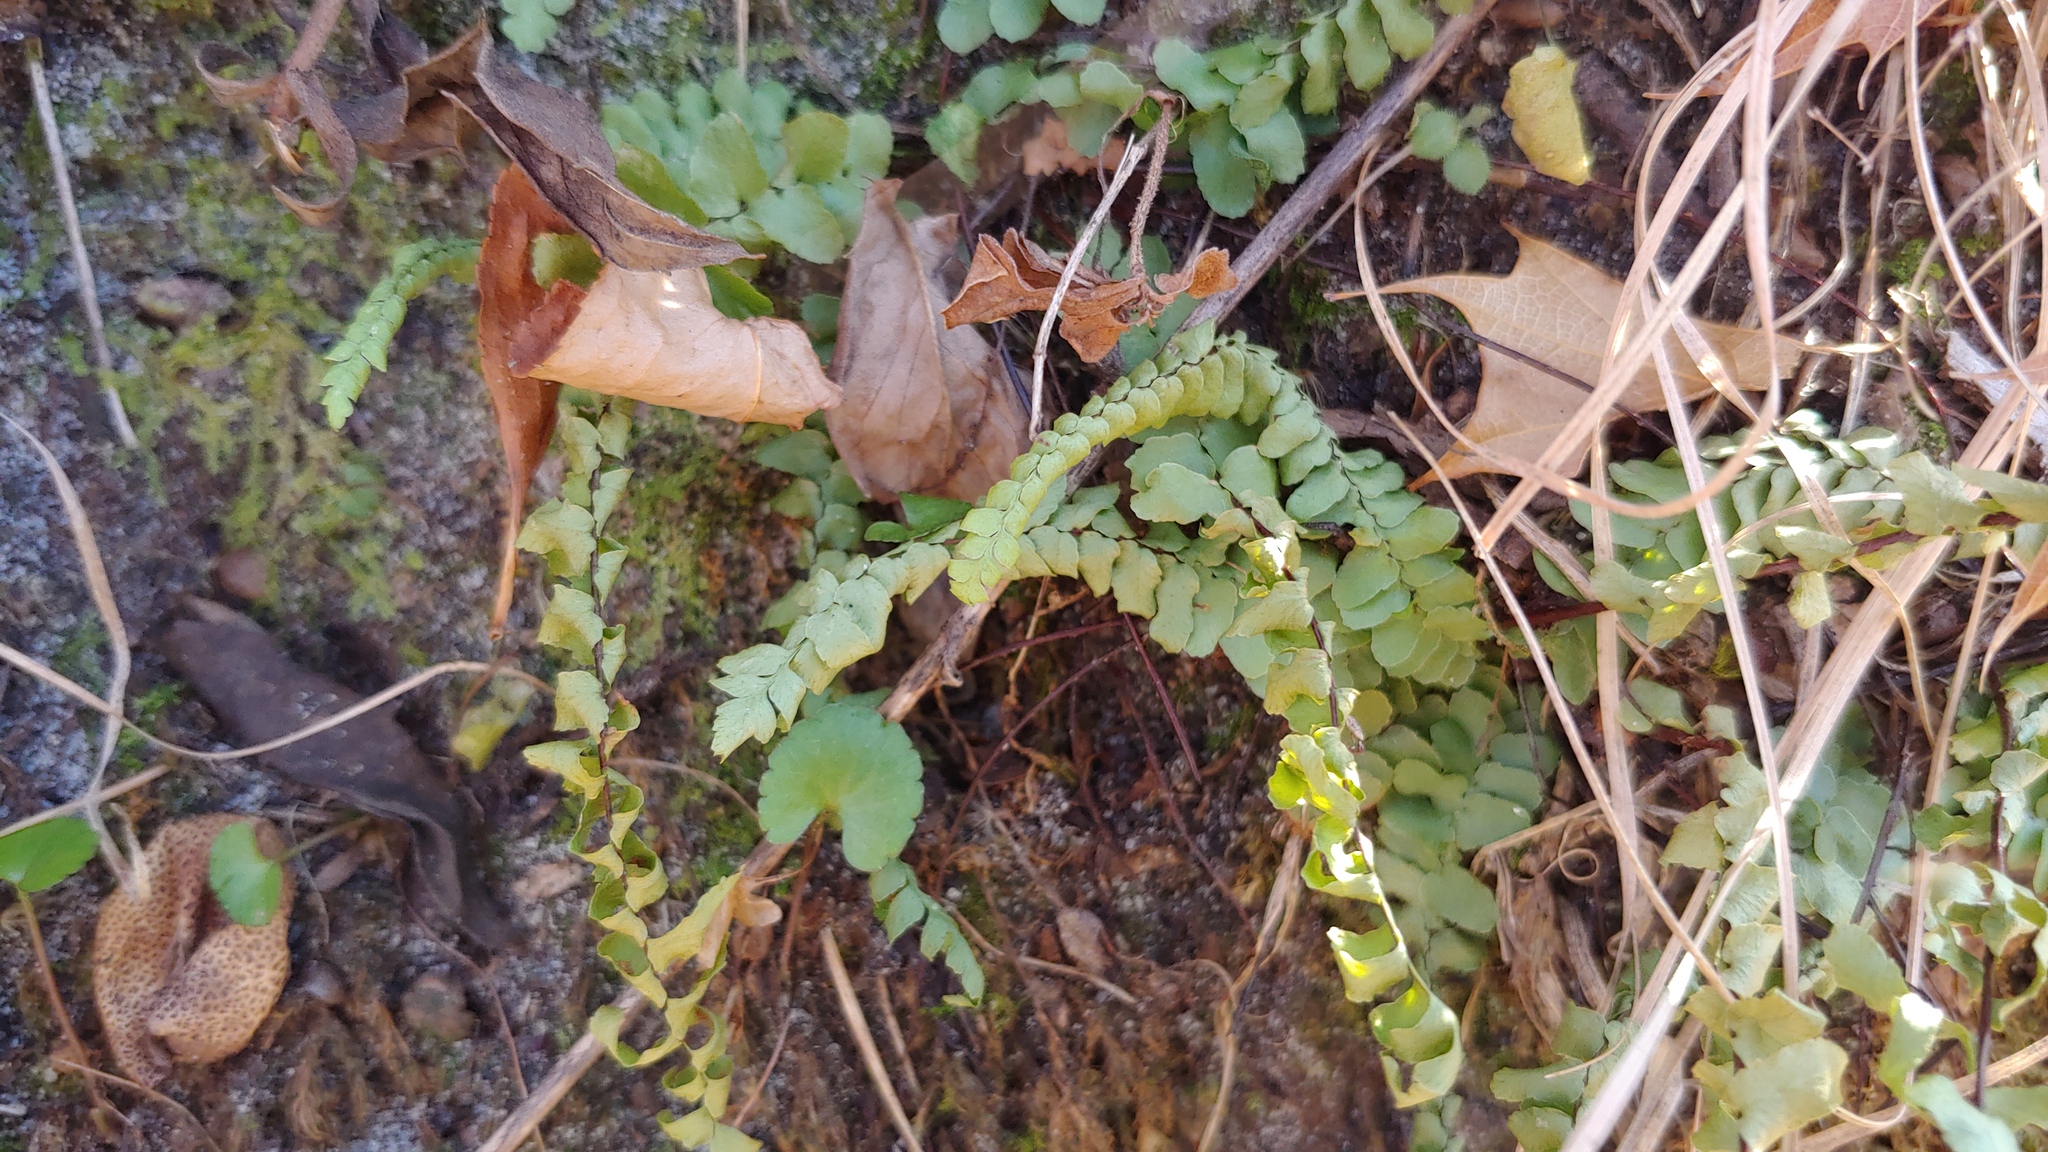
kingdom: Plantae
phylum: Tracheophyta
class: Polypodiopsida
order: Polypodiales
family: Aspleniaceae
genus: Asplenium
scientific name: Asplenium platyneuron
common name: Ebony spleenwort
